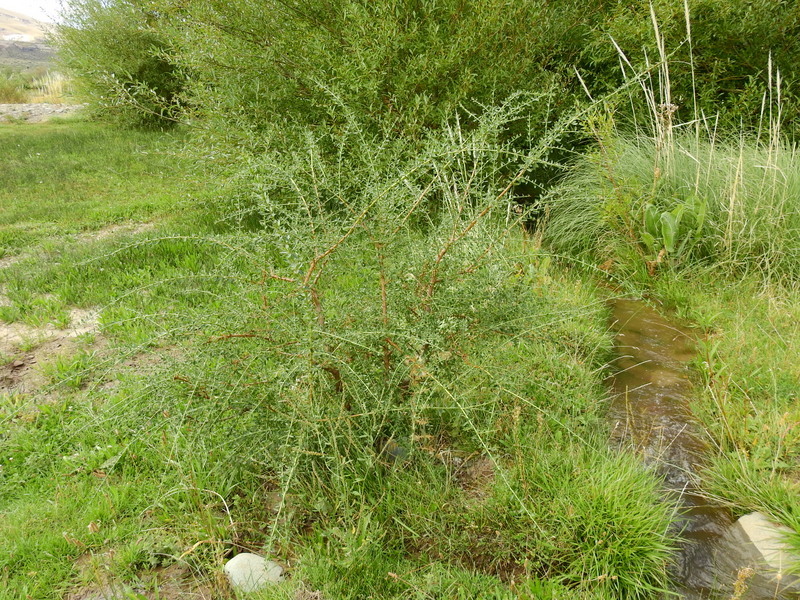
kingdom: Plantae
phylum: Tracheophyta
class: Magnoliopsida
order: Rosales
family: Rhamnaceae
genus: Ochetophila
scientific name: Ochetophila trinervis
